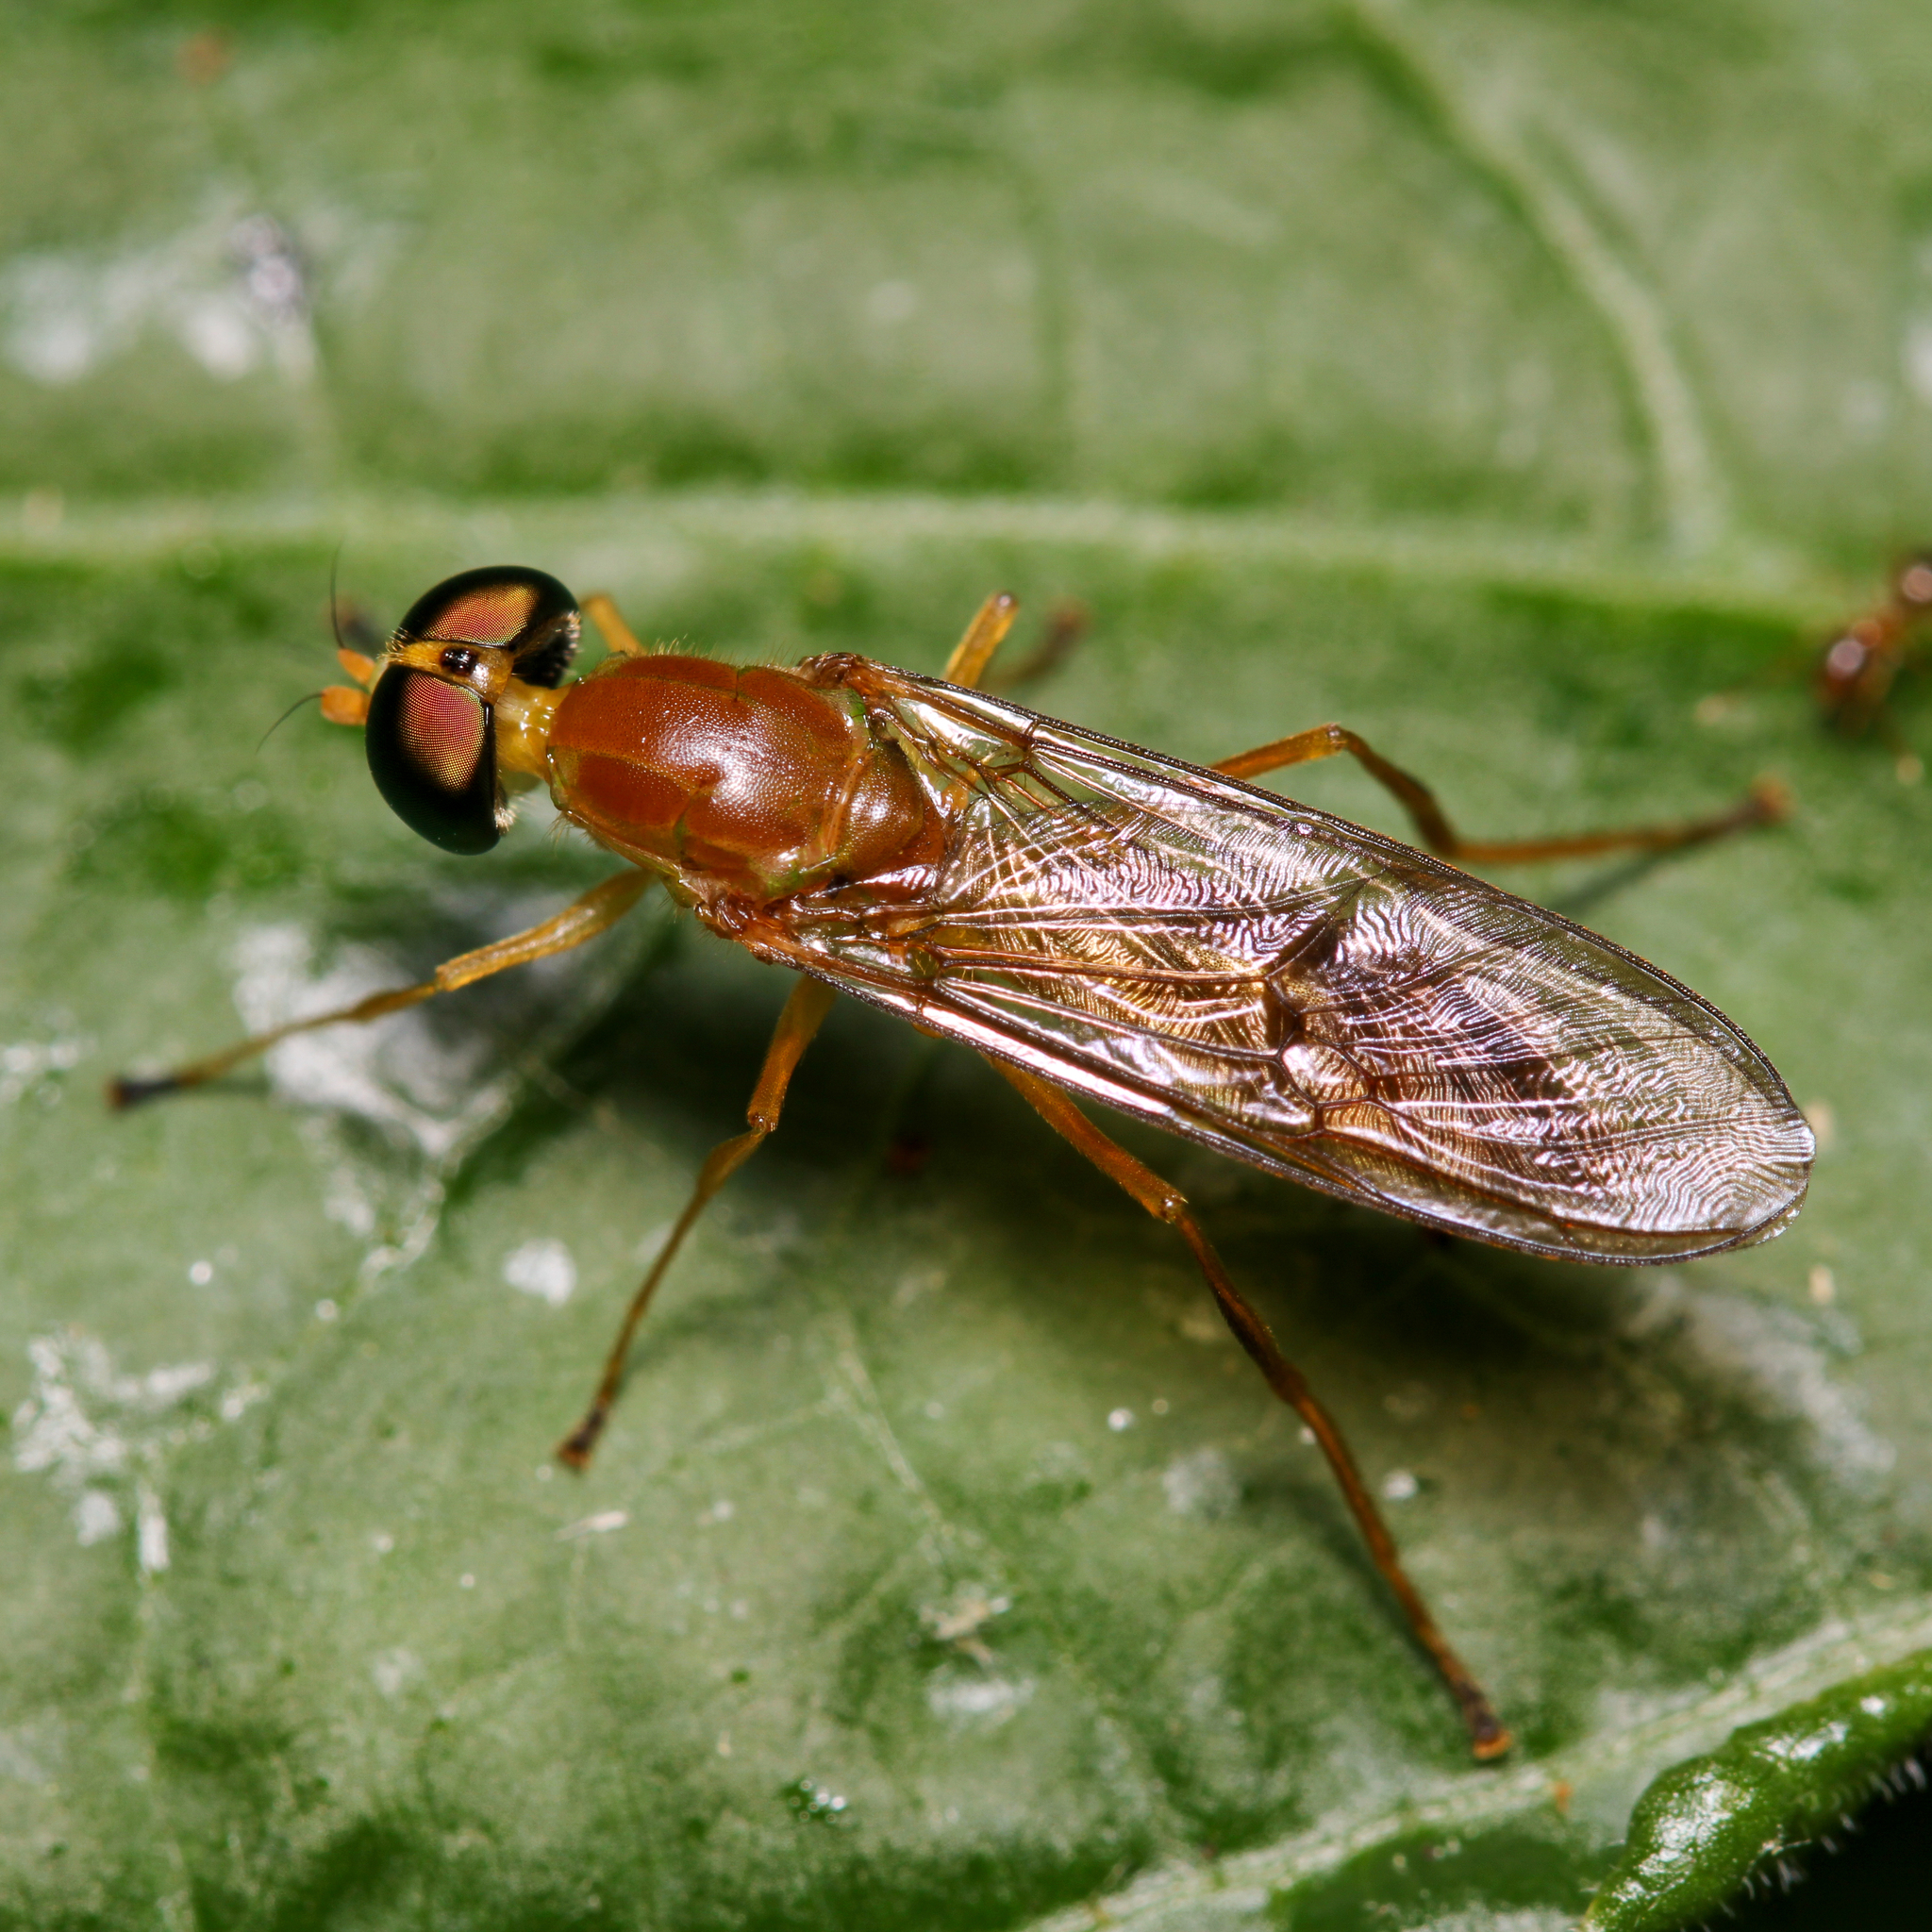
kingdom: Animalia
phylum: Arthropoda
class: Insecta
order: Diptera
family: Stratiomyidae
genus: Ptecticus
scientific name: Ptecticus trivittatus
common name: Compost fly
